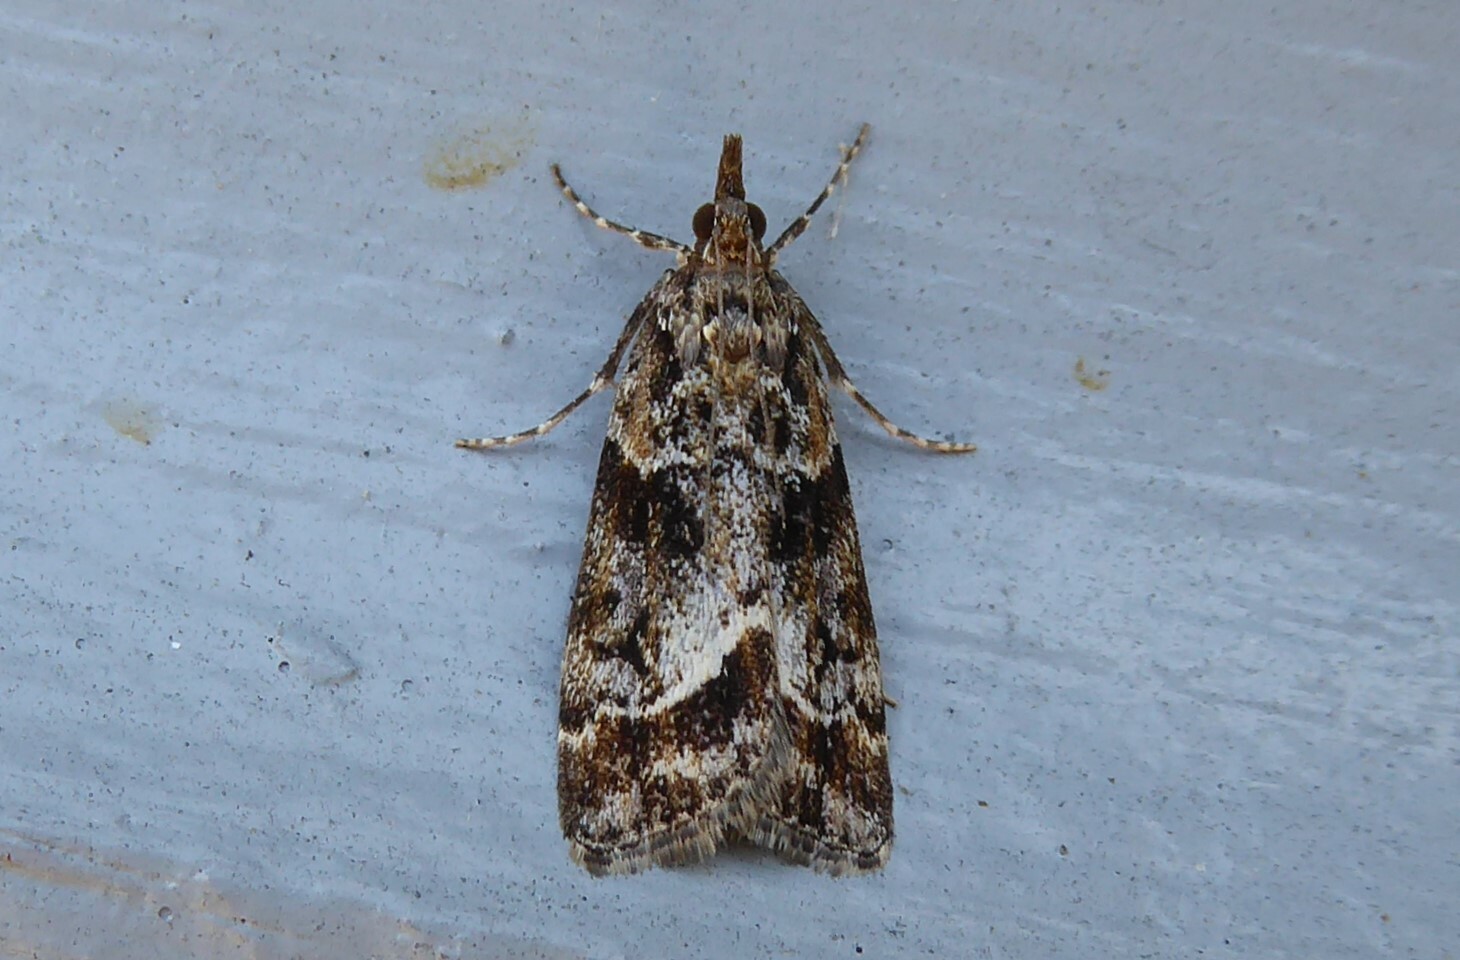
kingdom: Animalia
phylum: Arthropoda
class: Insecta
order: Lepidoptera
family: Crambidae
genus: Eudonia
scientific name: Eudonia legnota
